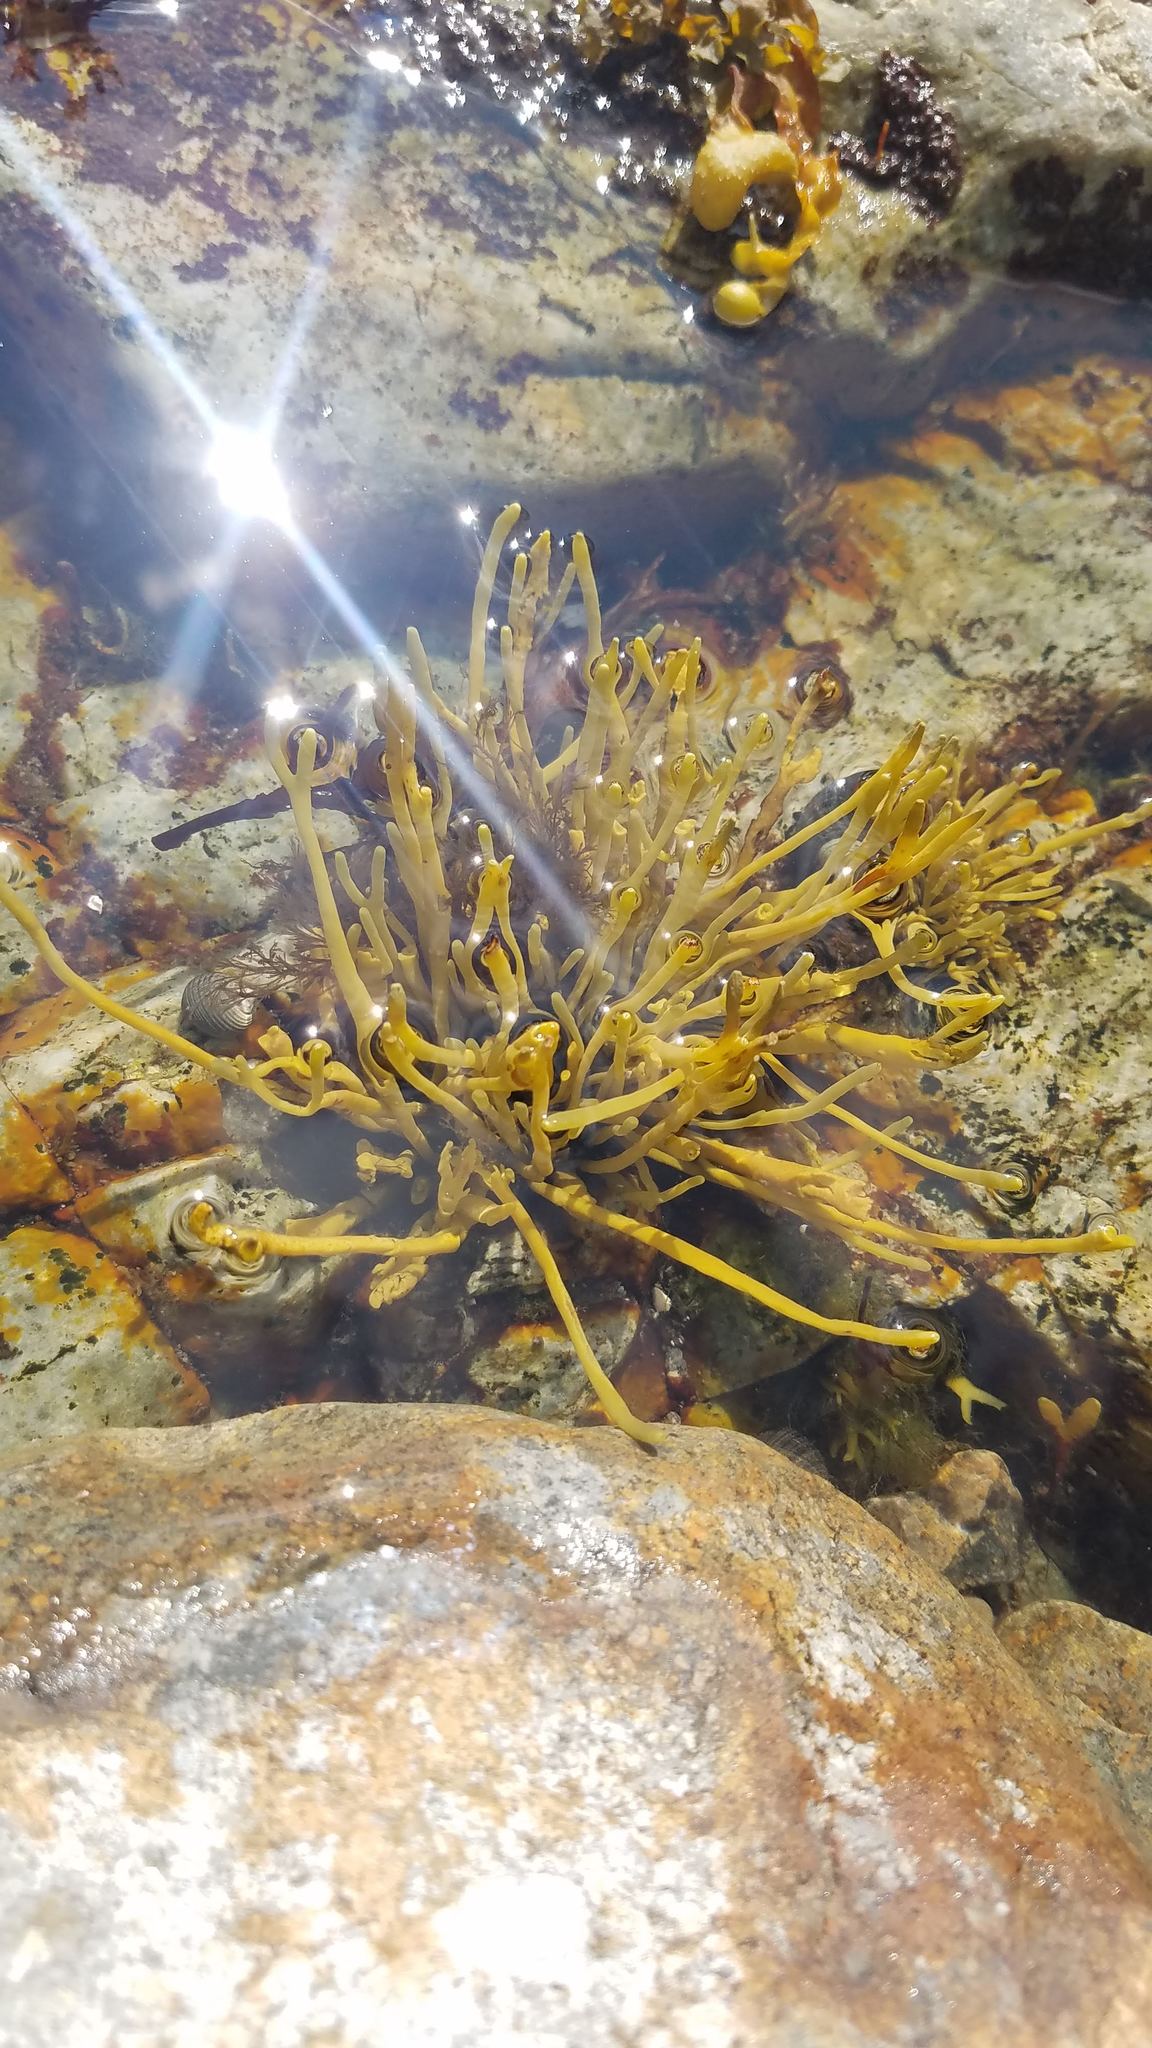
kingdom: Chromista
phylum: Ochrophyta
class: Phaeophyceae
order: Fucales
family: Fucaceae
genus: Ascophyllum
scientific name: Ascophyllum nodosum
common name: Knotted wrack
